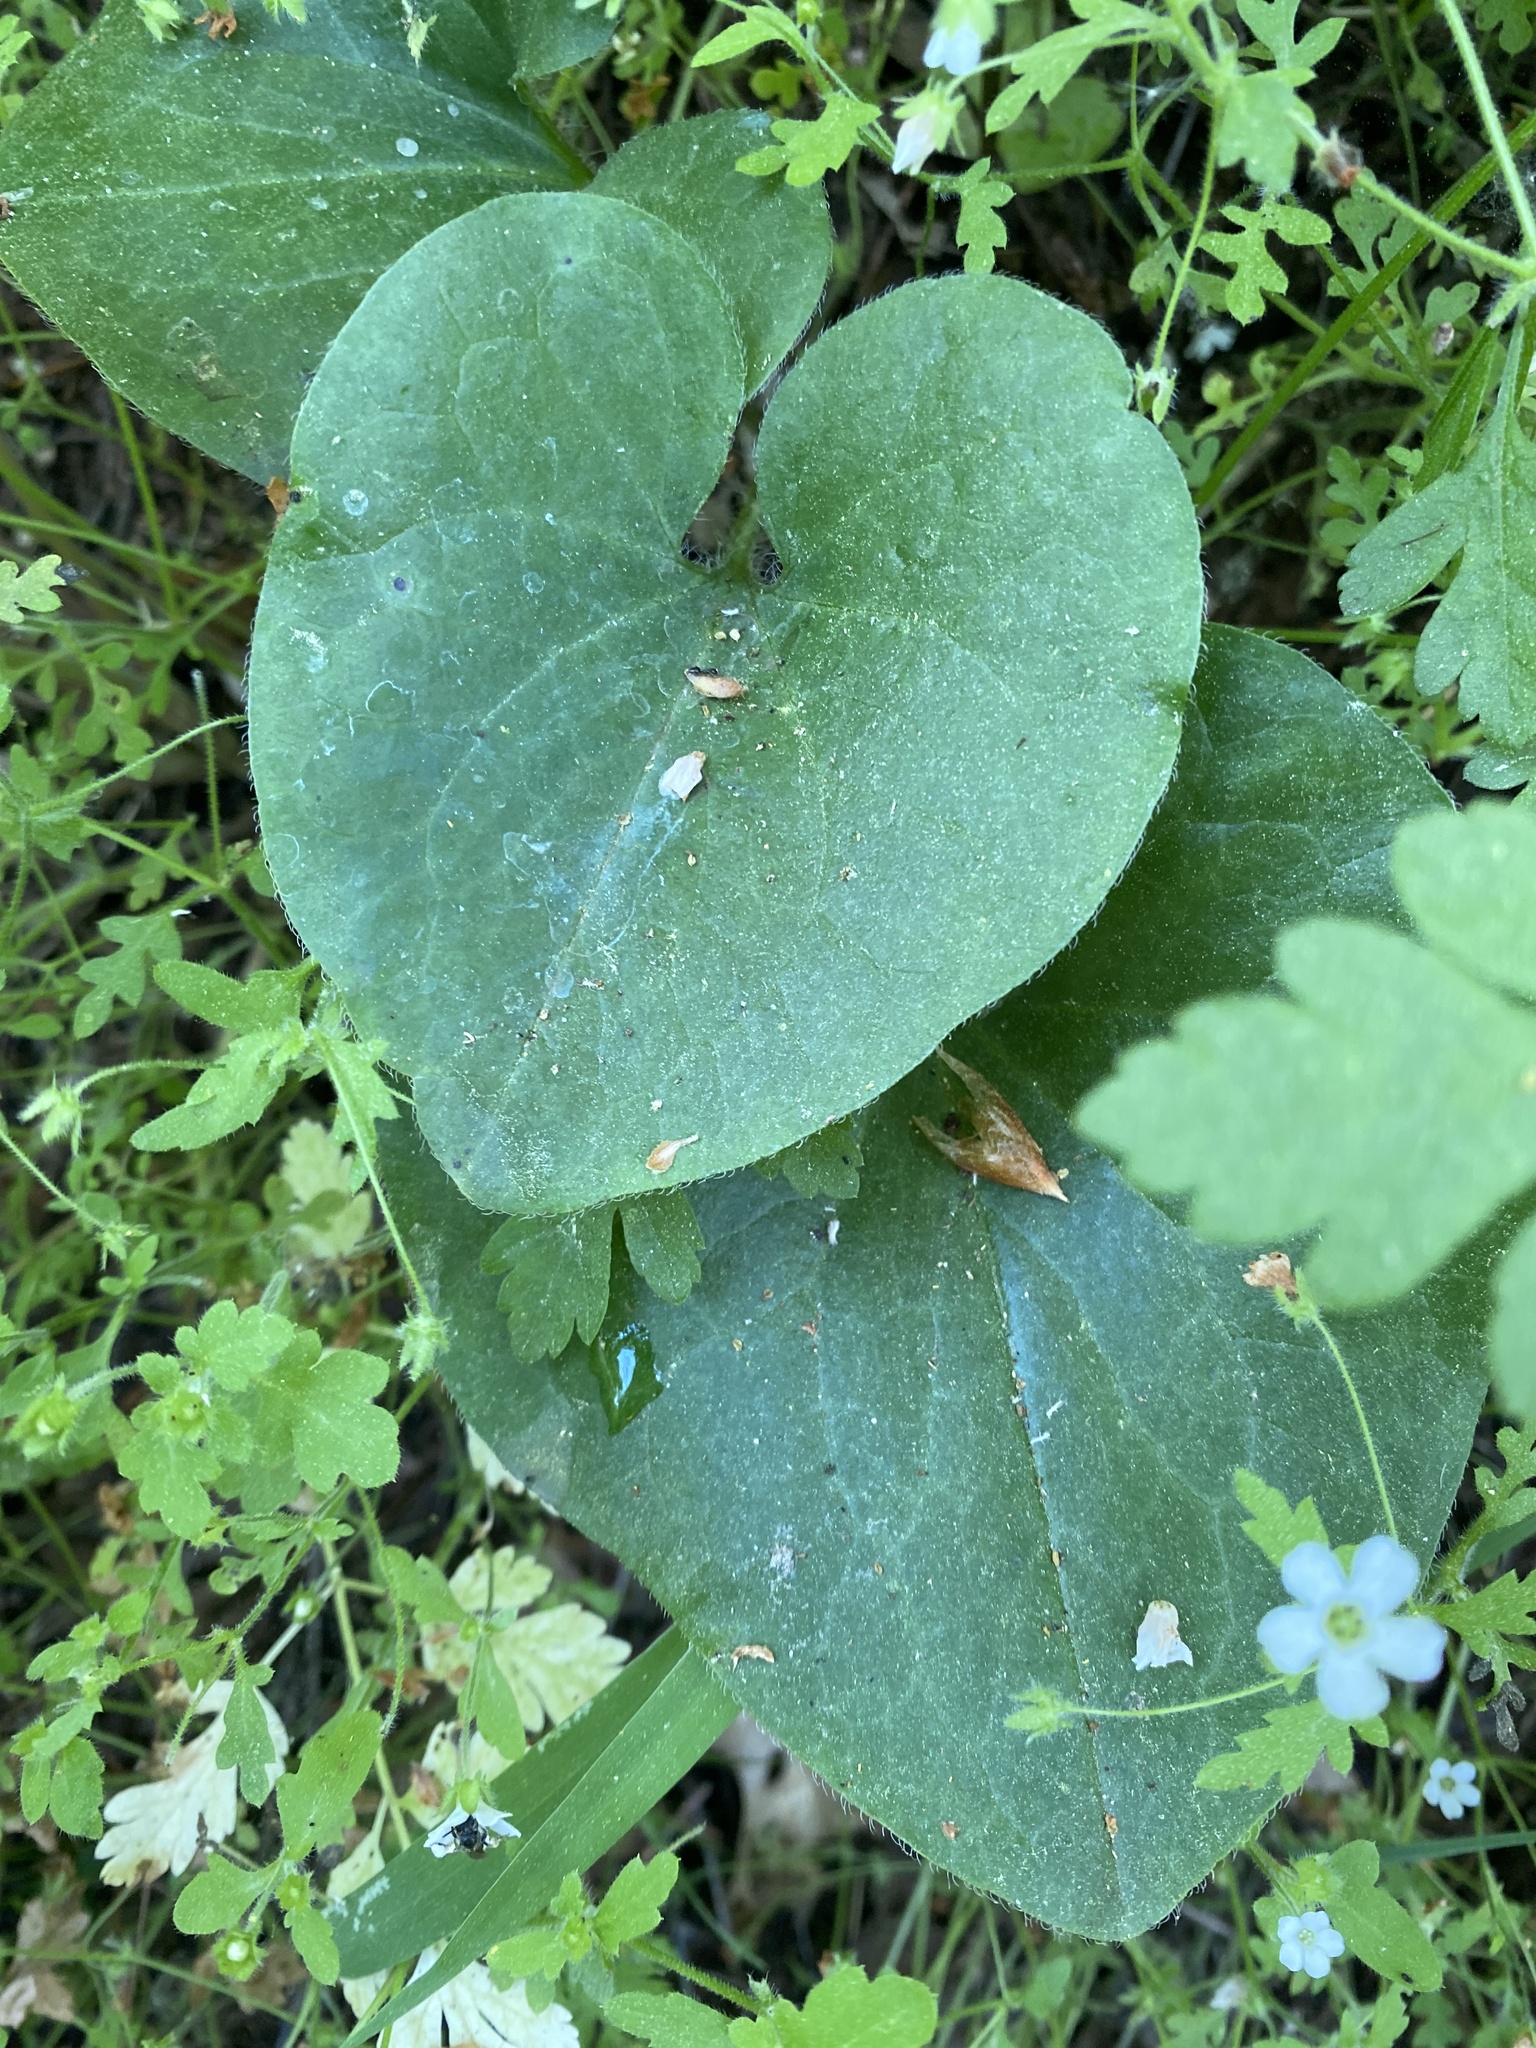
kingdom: Plantae
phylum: Tracheophyta
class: Magnoliopsida
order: Piperales
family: Aristolochiaceae
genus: Asarum
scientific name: Asarum hartwegii
